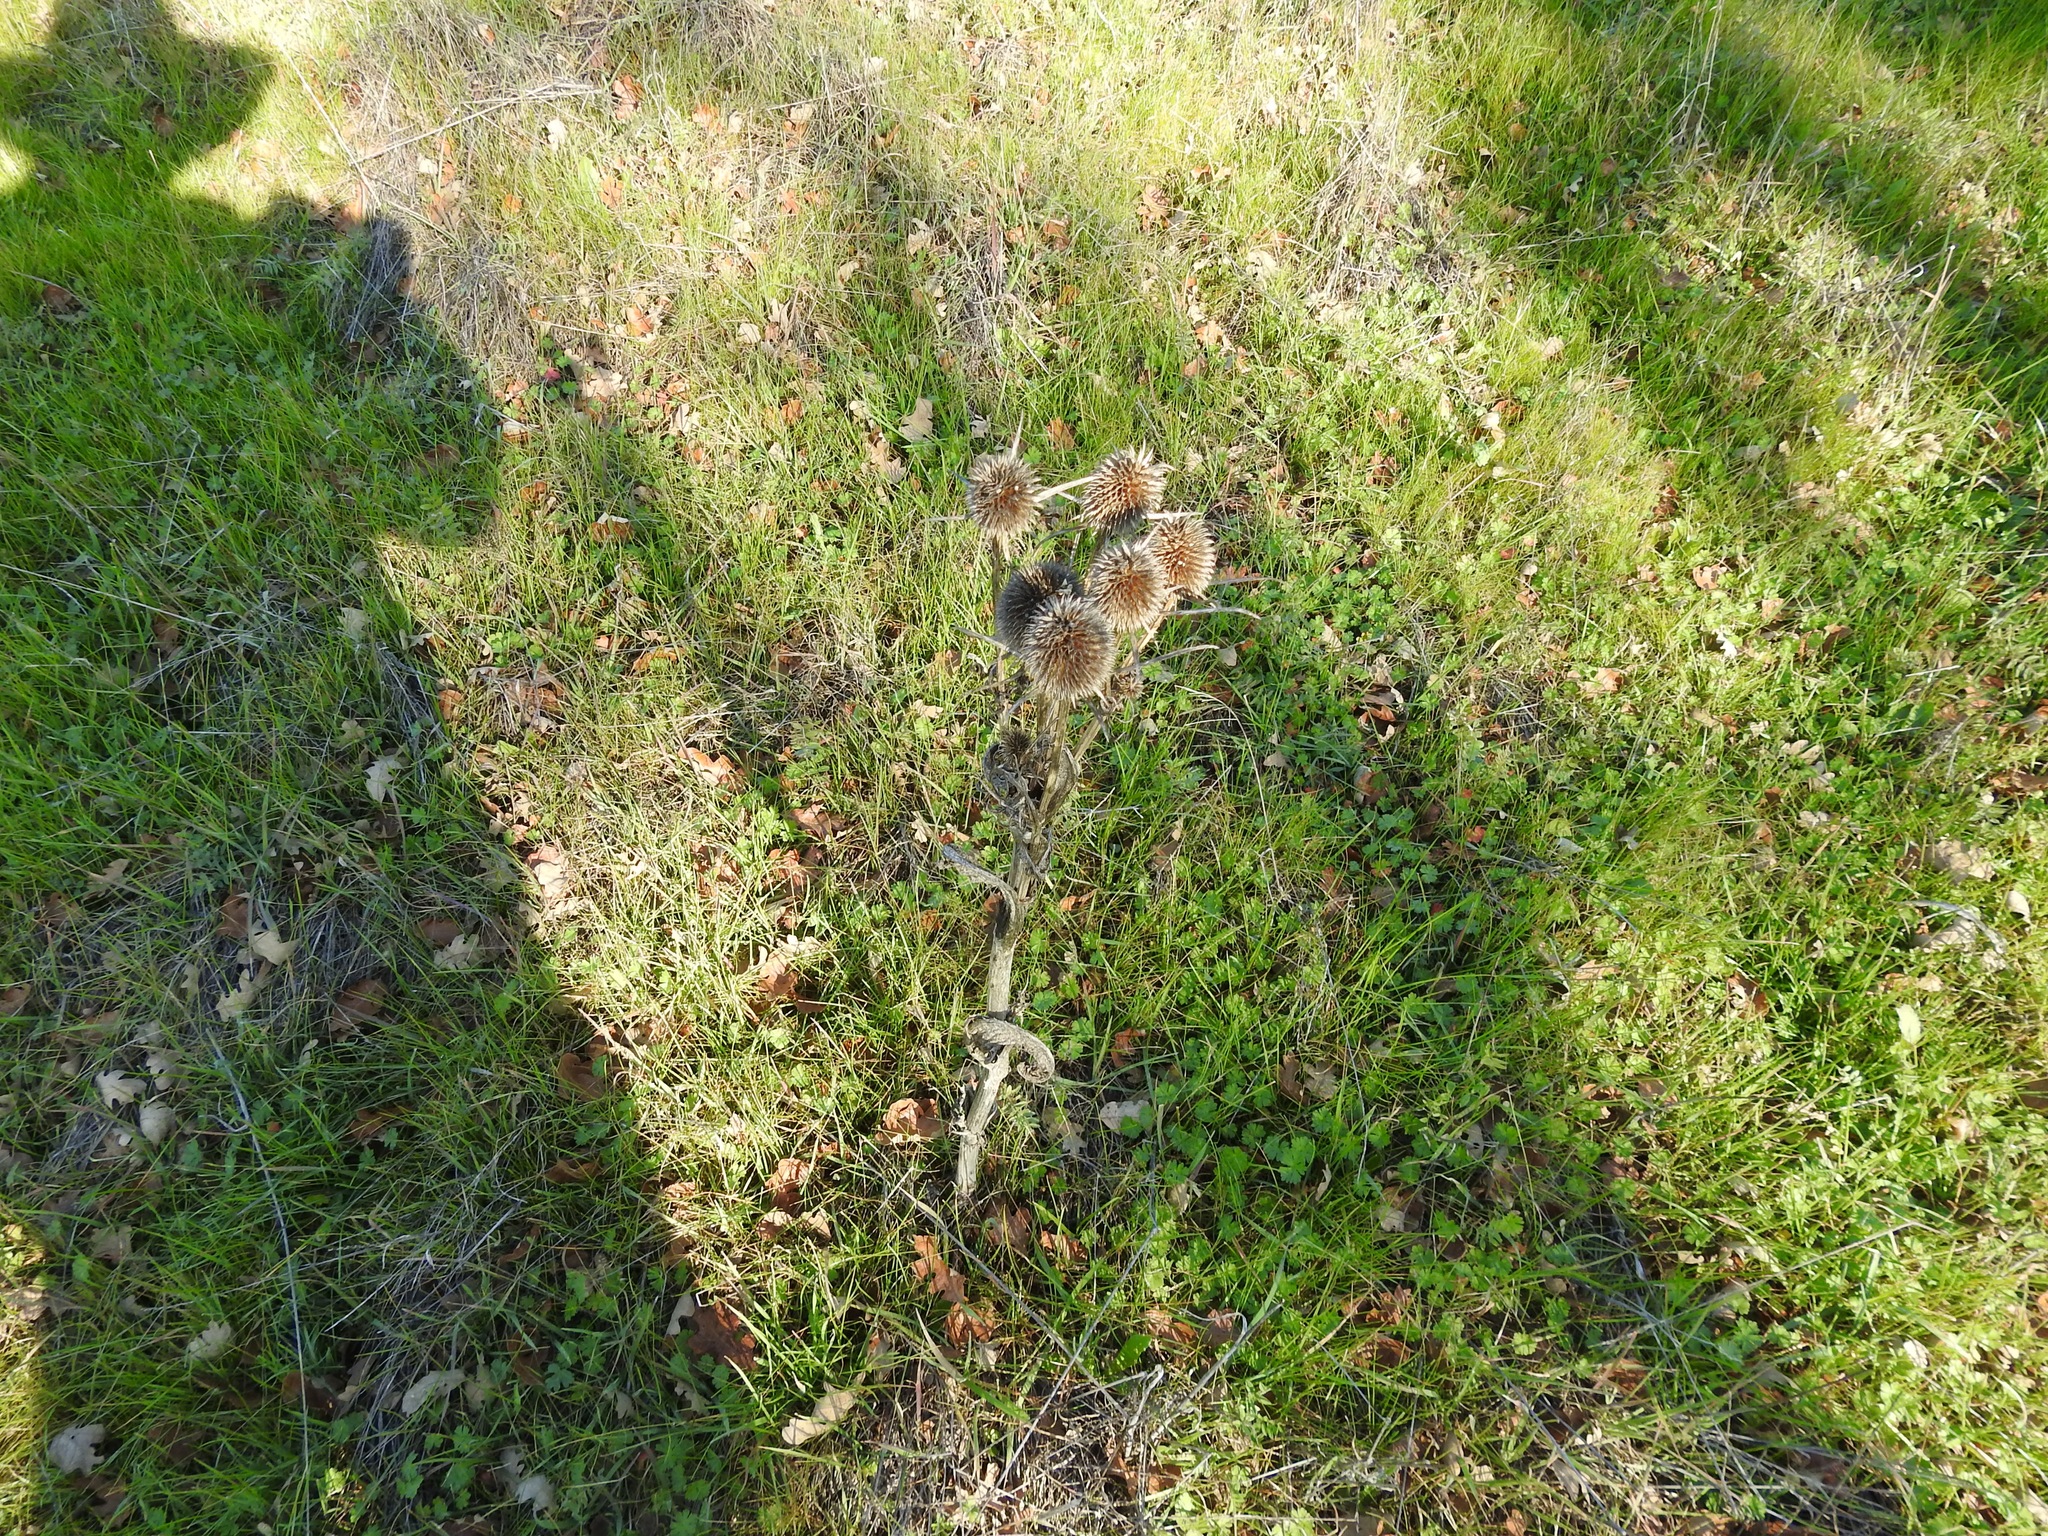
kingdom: Plantae
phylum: Tracheophyta
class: Magnoliopsida
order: Dipsacales
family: Caprifoliaceae
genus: Dipsacus
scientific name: Dipsacus sativus
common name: Fuller's teasel
